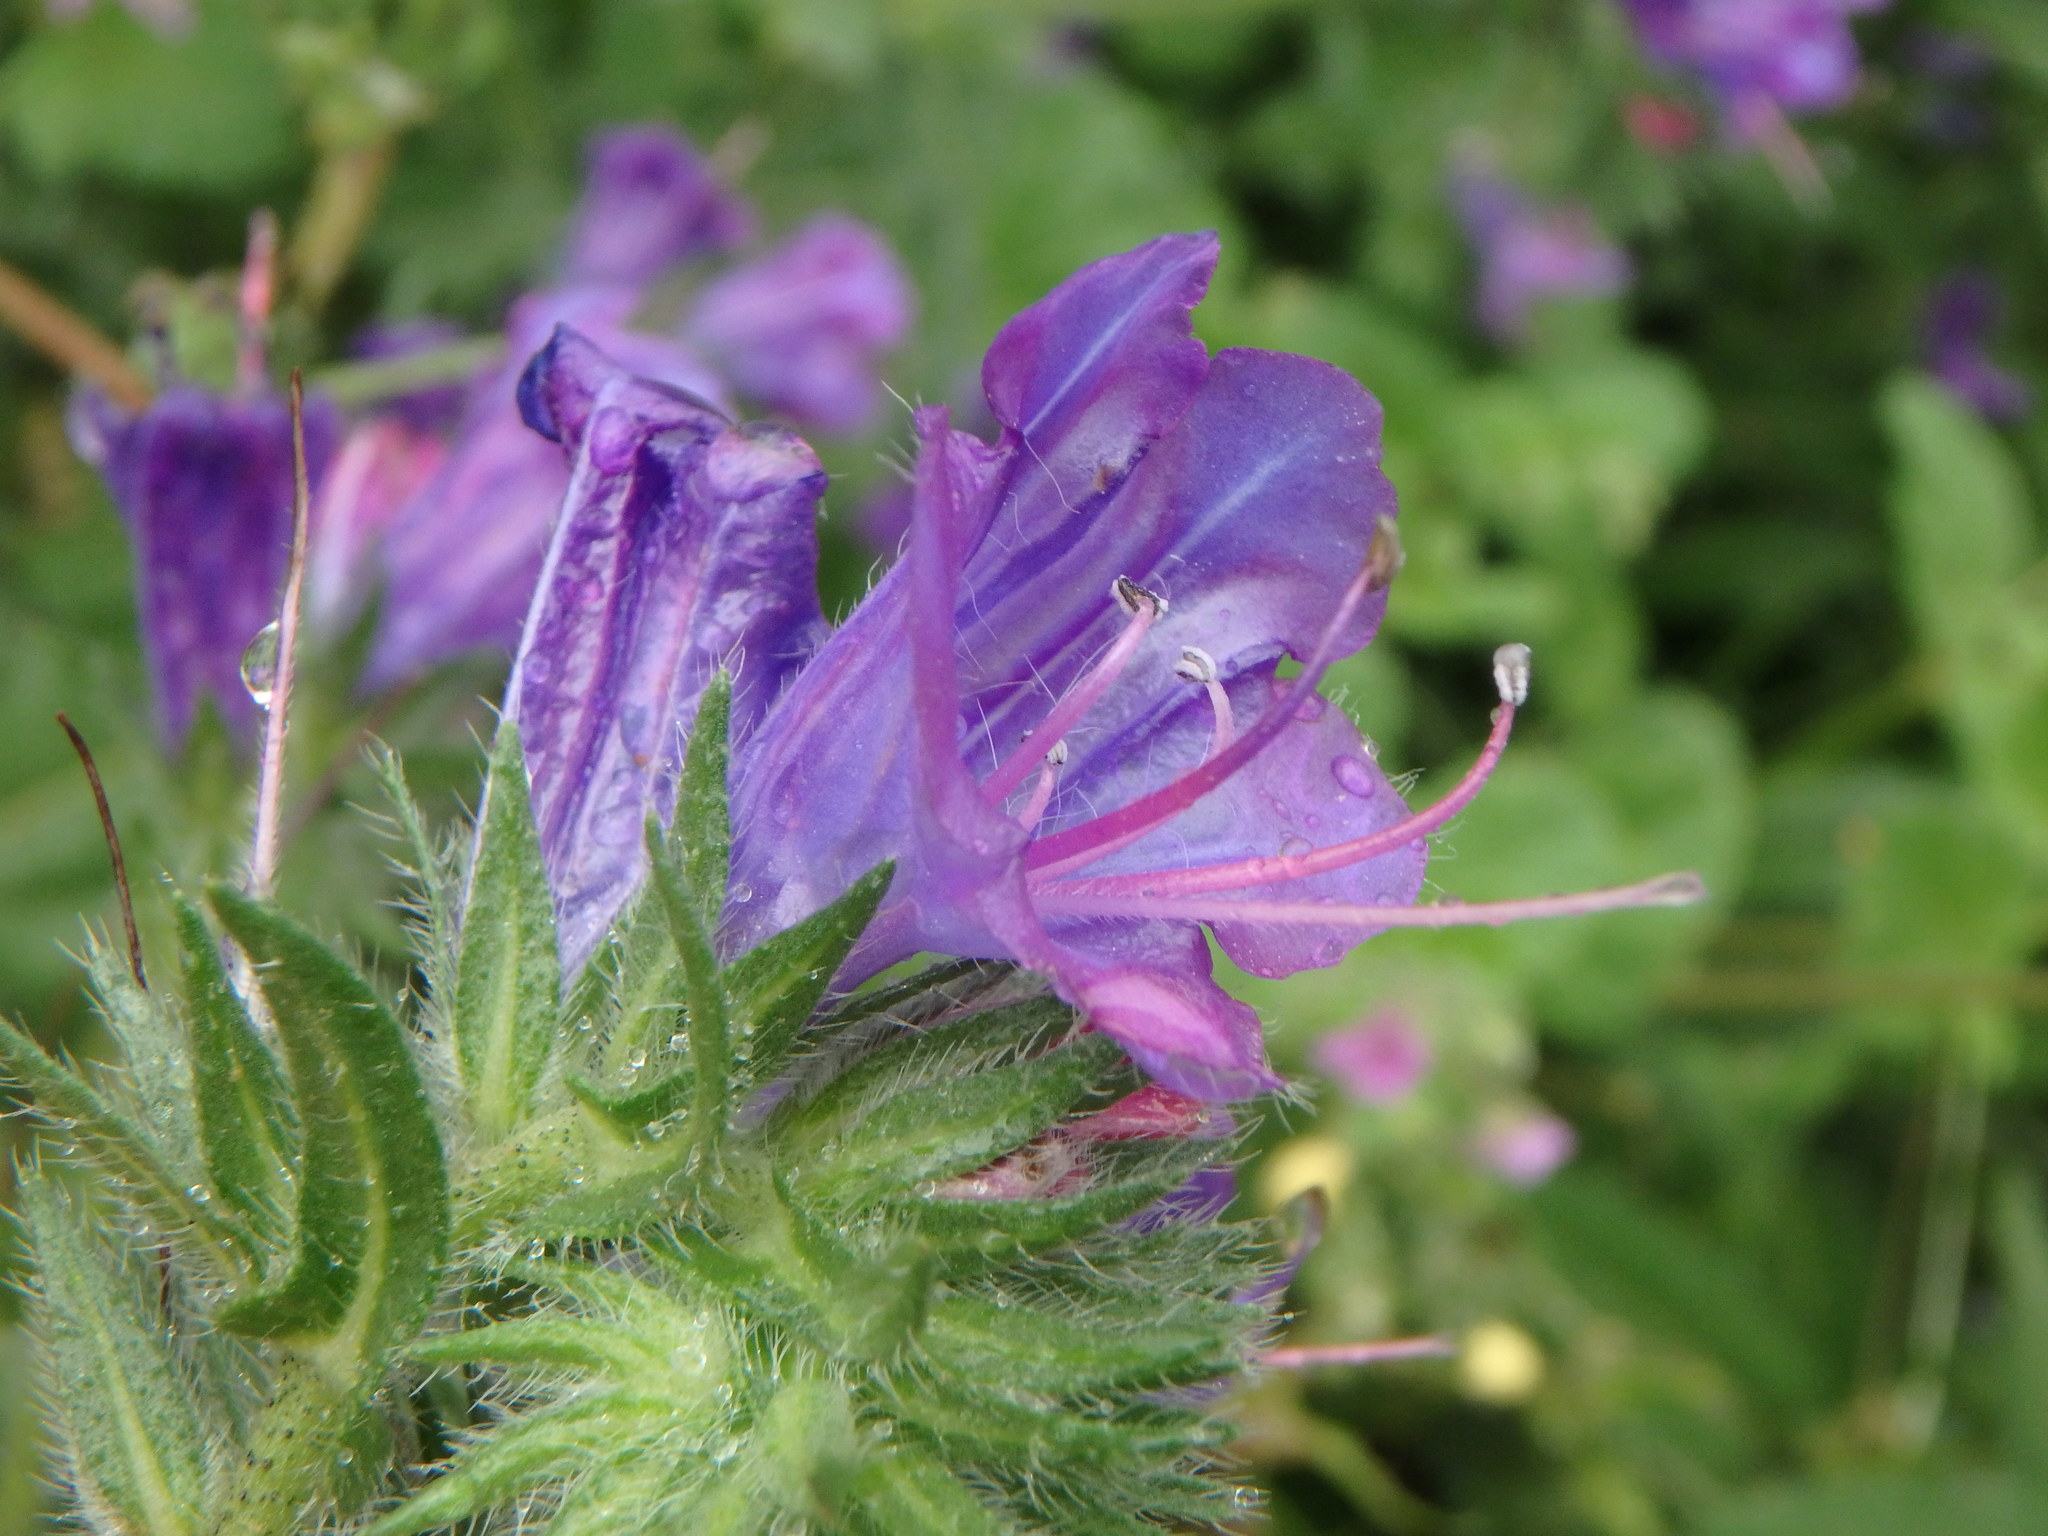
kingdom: Plantae
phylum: Tracheophyta
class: Magnoliopsida
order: Boraginales
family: Boraginaceae
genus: Echium
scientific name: Echium plantagineum
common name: Purple viper's-bugloss
